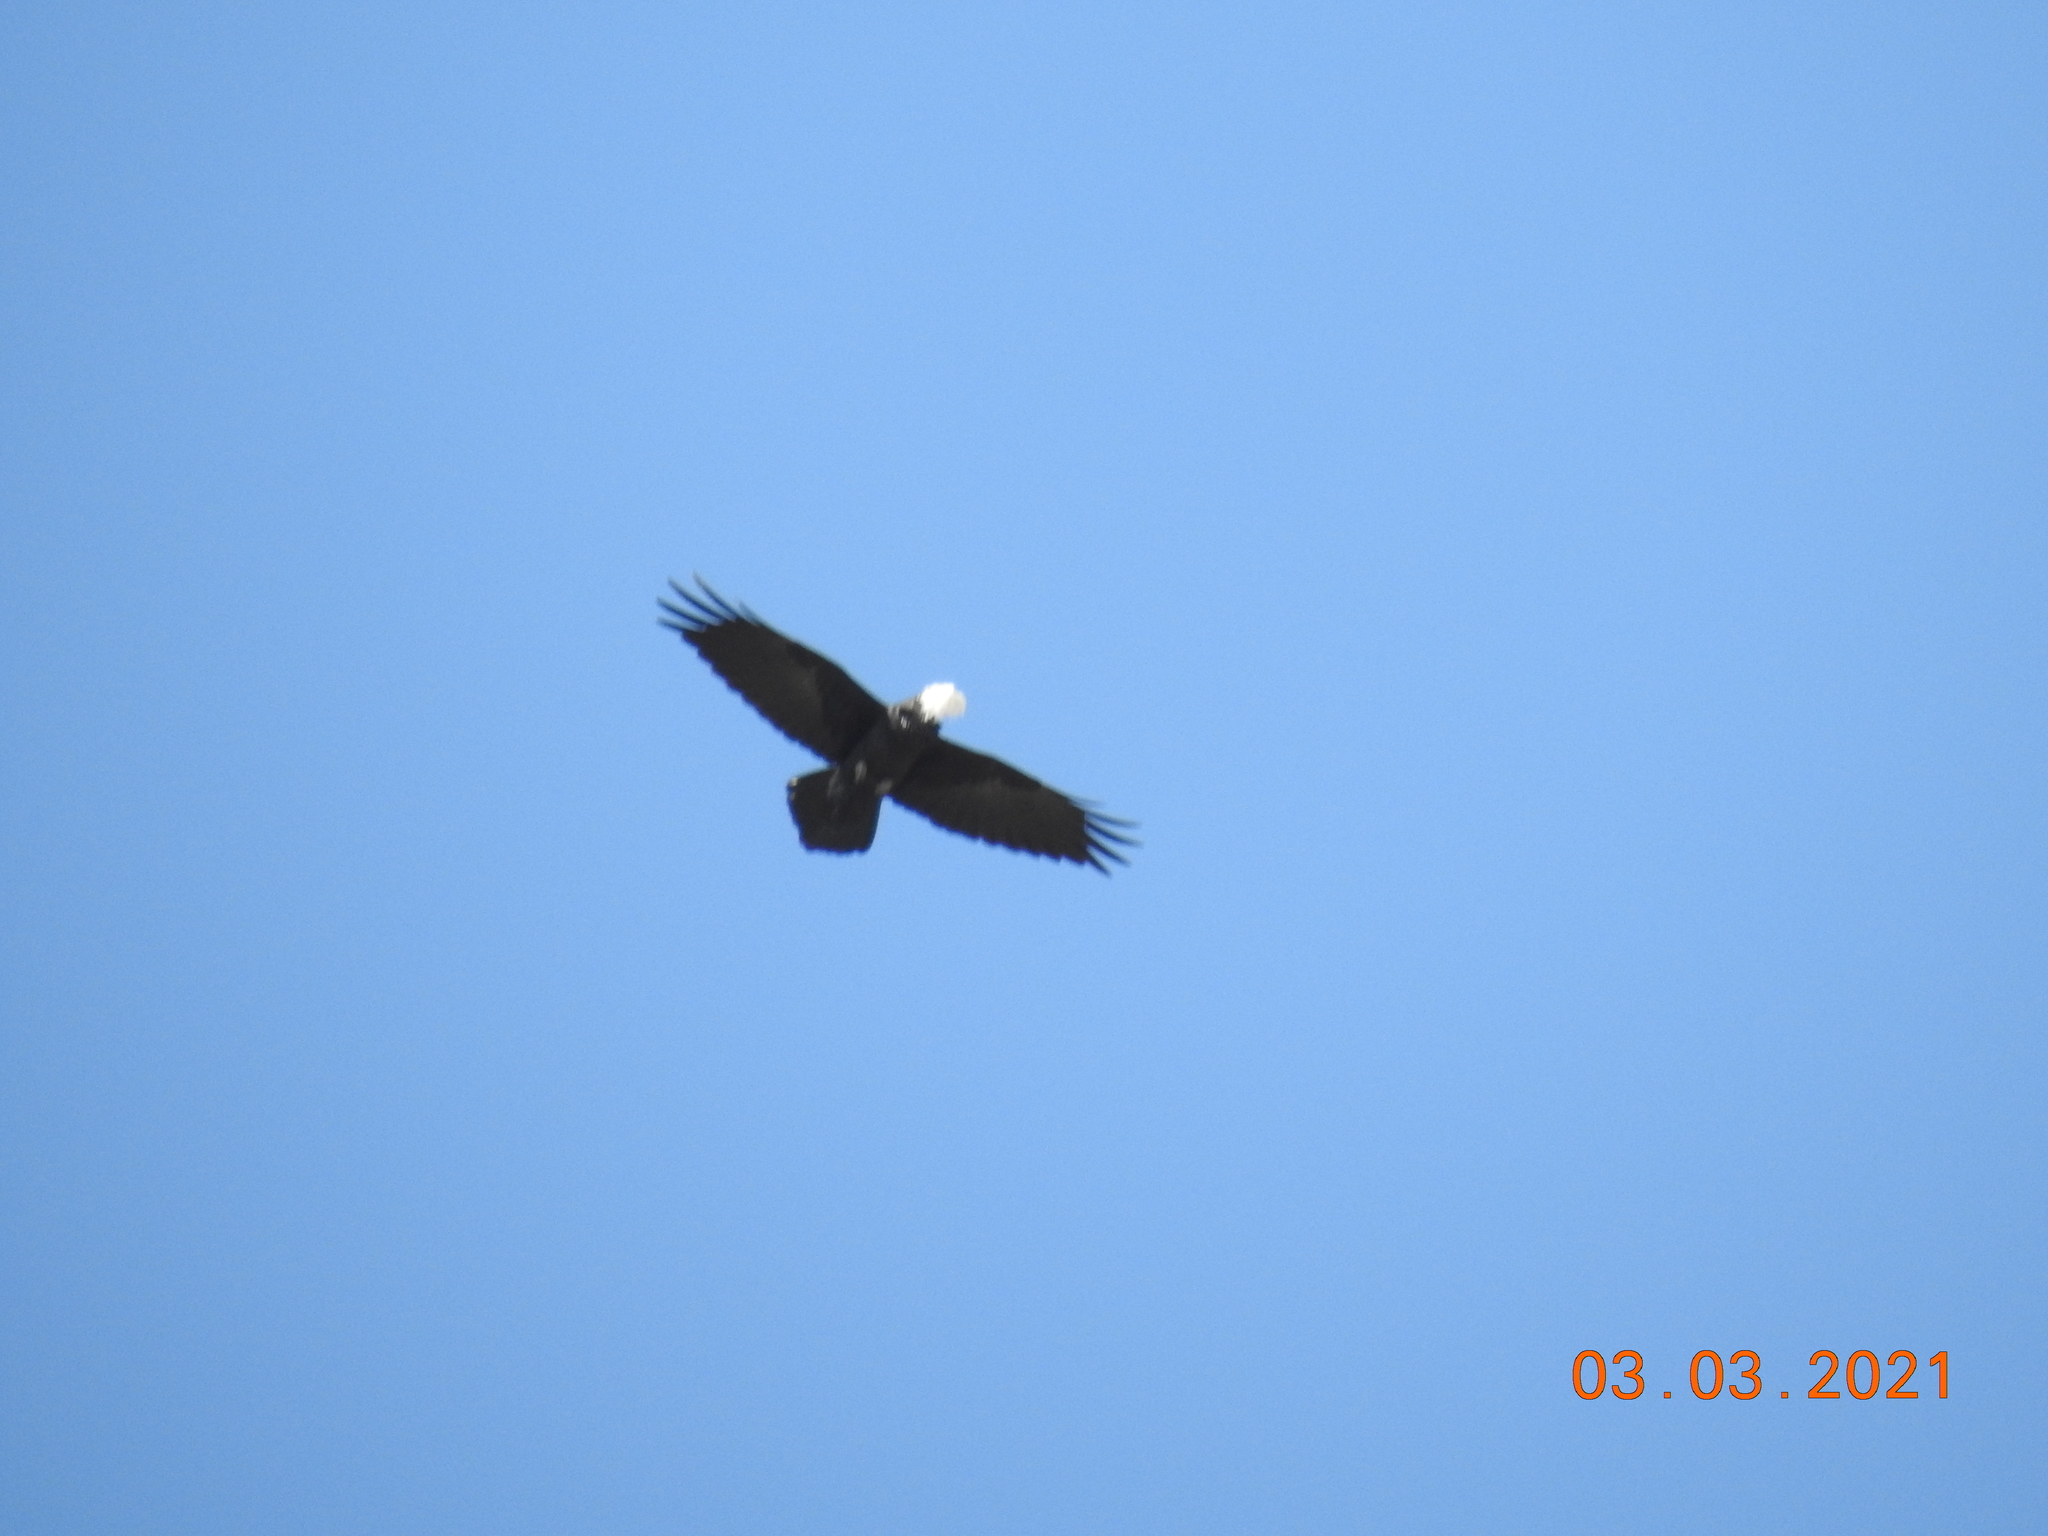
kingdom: Animalia
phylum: Chordata
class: Aves
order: Passeriformes
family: Corvidae
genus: Corvus
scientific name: Corvus corax
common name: Common raven
